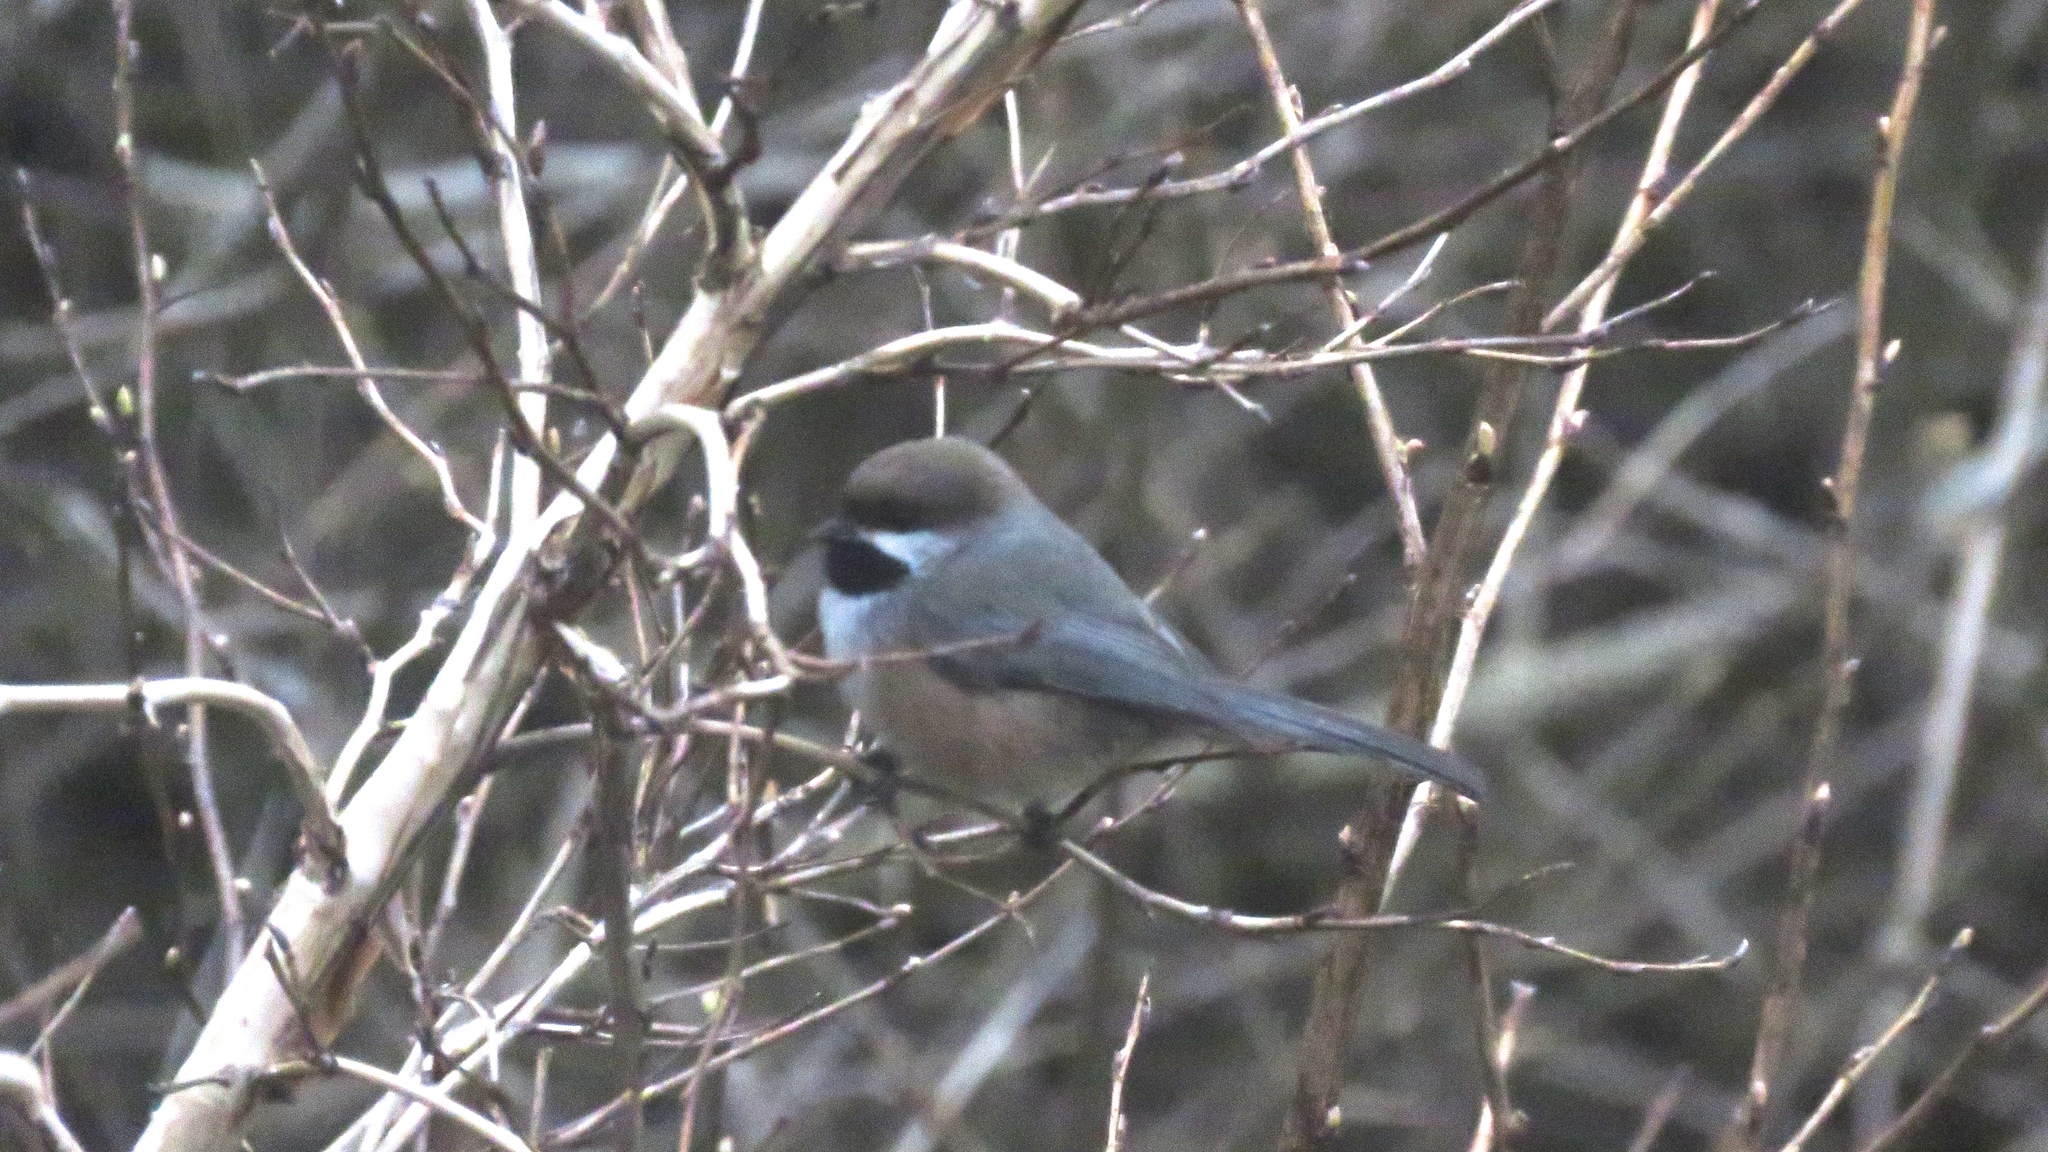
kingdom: Animalia
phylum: Chordata
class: Aves
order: Passeriformes
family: Paridae
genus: Poecile
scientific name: Poecile hudsonicus
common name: Boreal chickadee
